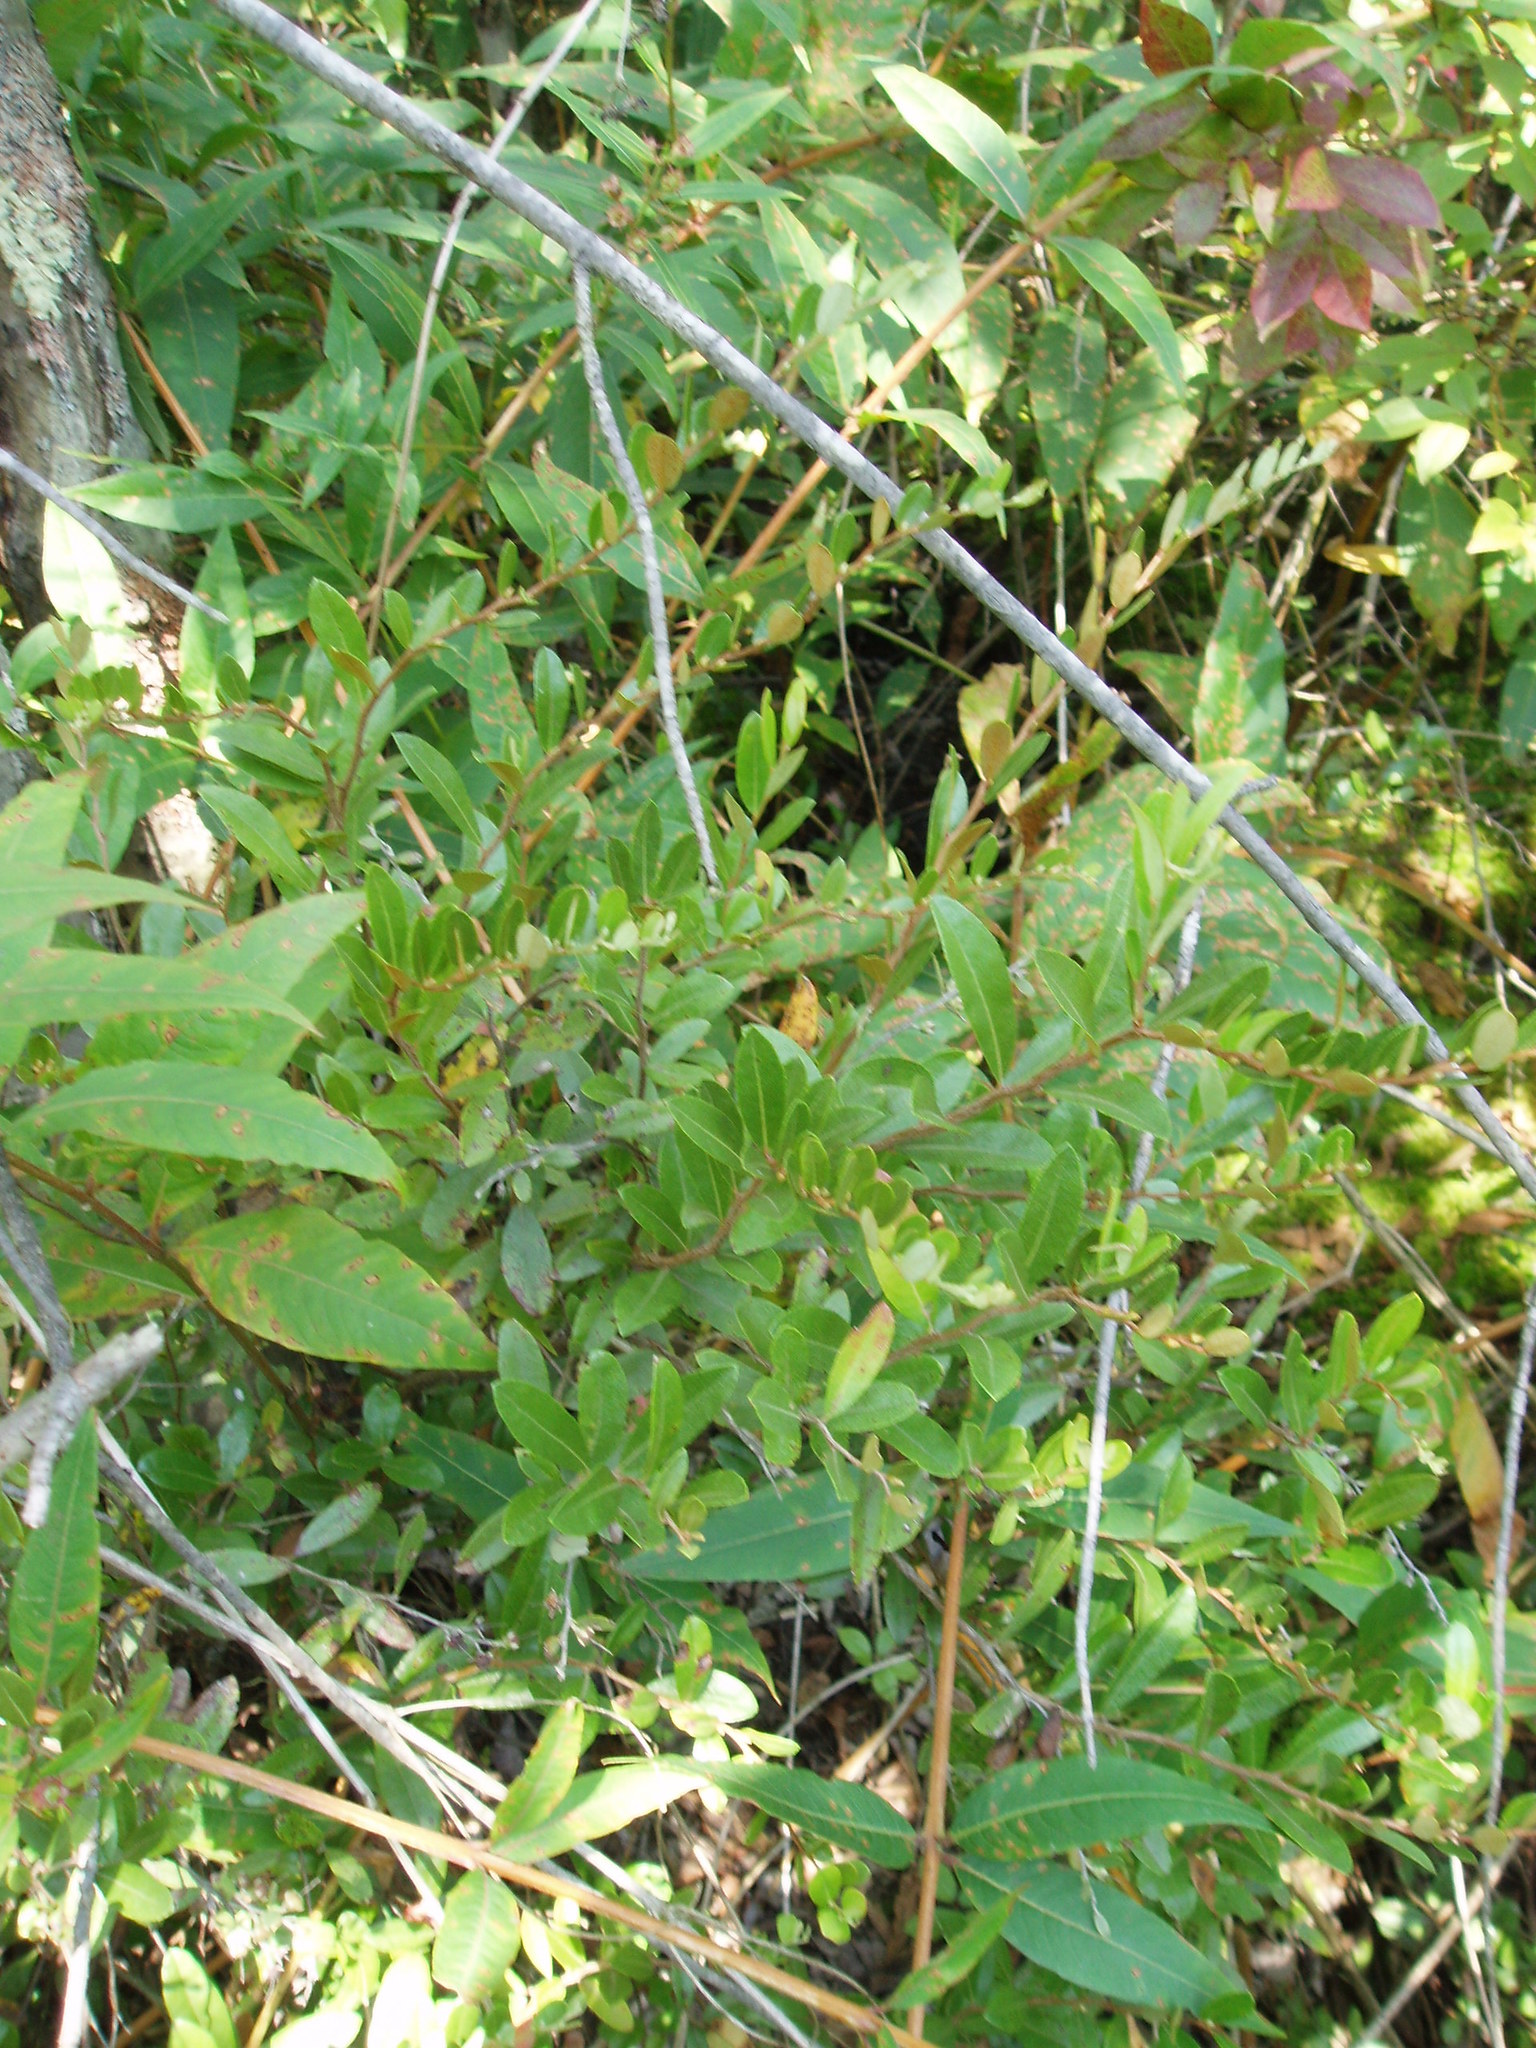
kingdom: Plantae
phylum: Tracheophyta
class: Magnoliopsida
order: Ericales
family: Ericaceae
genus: Chamaedaphne
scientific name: Chamaedaphne calyculata
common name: Leatherleaf
